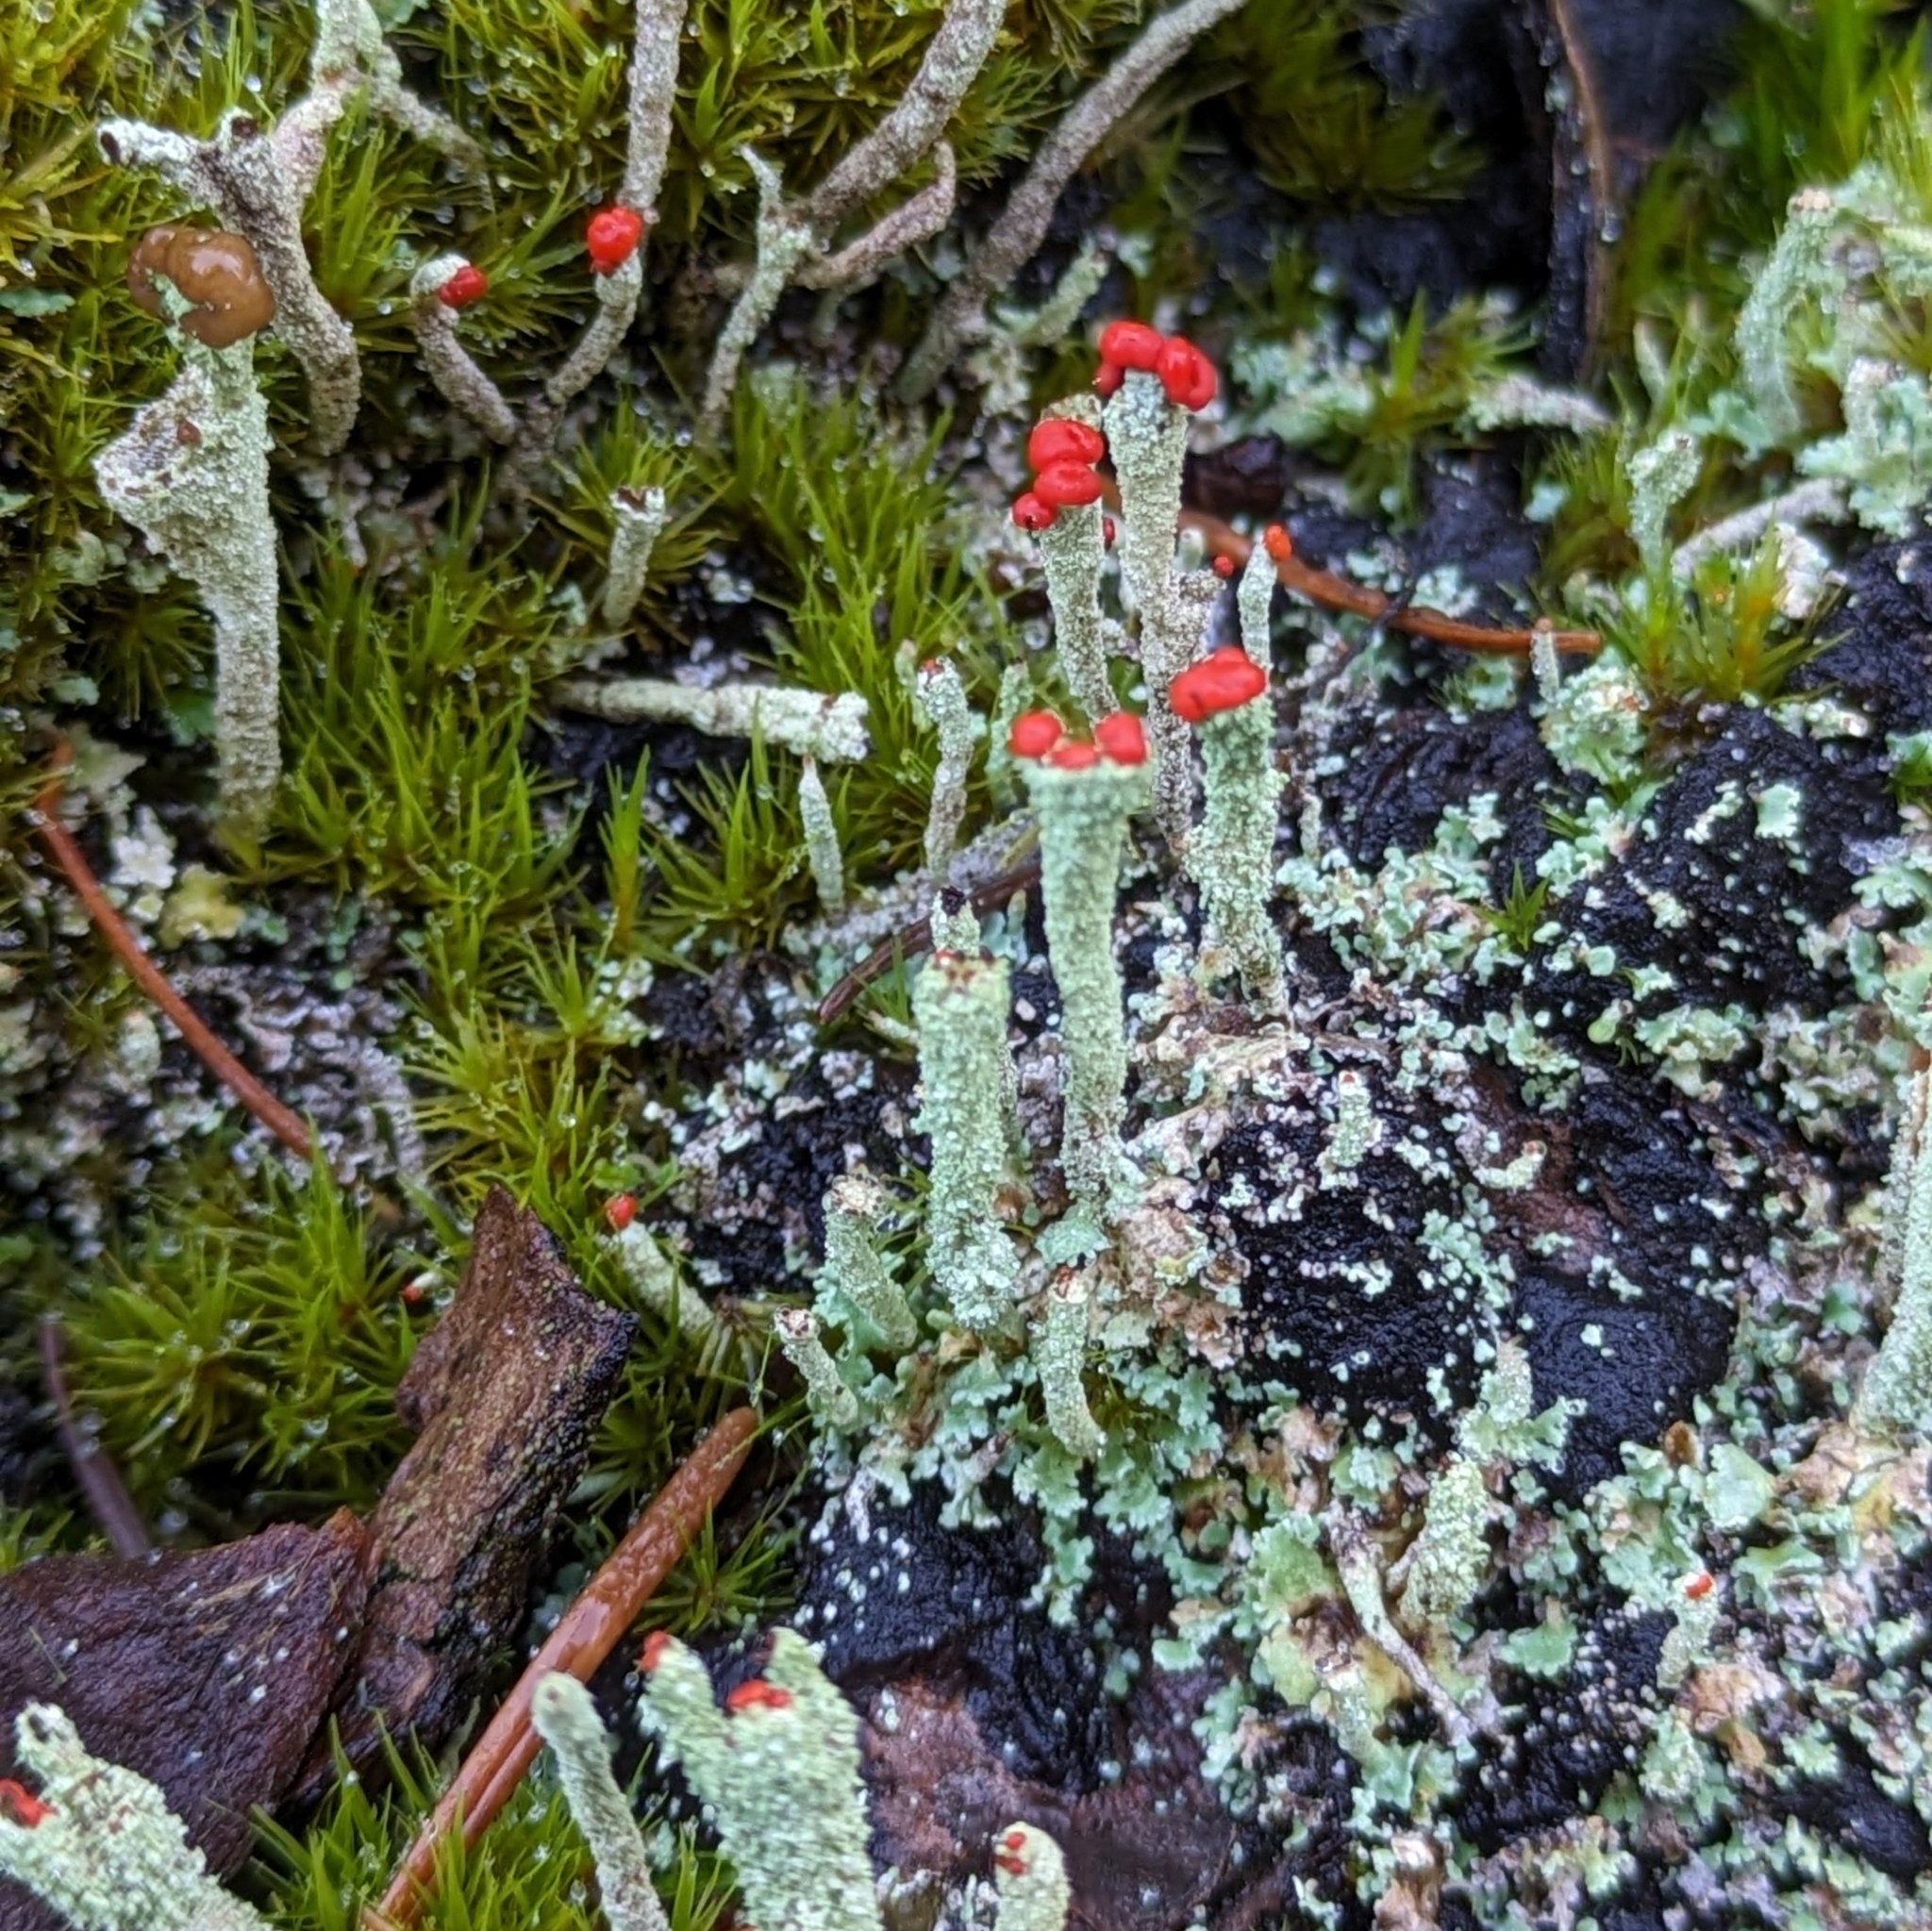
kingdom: Fungi
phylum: Ascomycota
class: Lecanoromycetes
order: Lecanorales
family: Cladoniaceae
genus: Cladonia
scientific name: Cladonia macilenta
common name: Lipstick powderhorn
